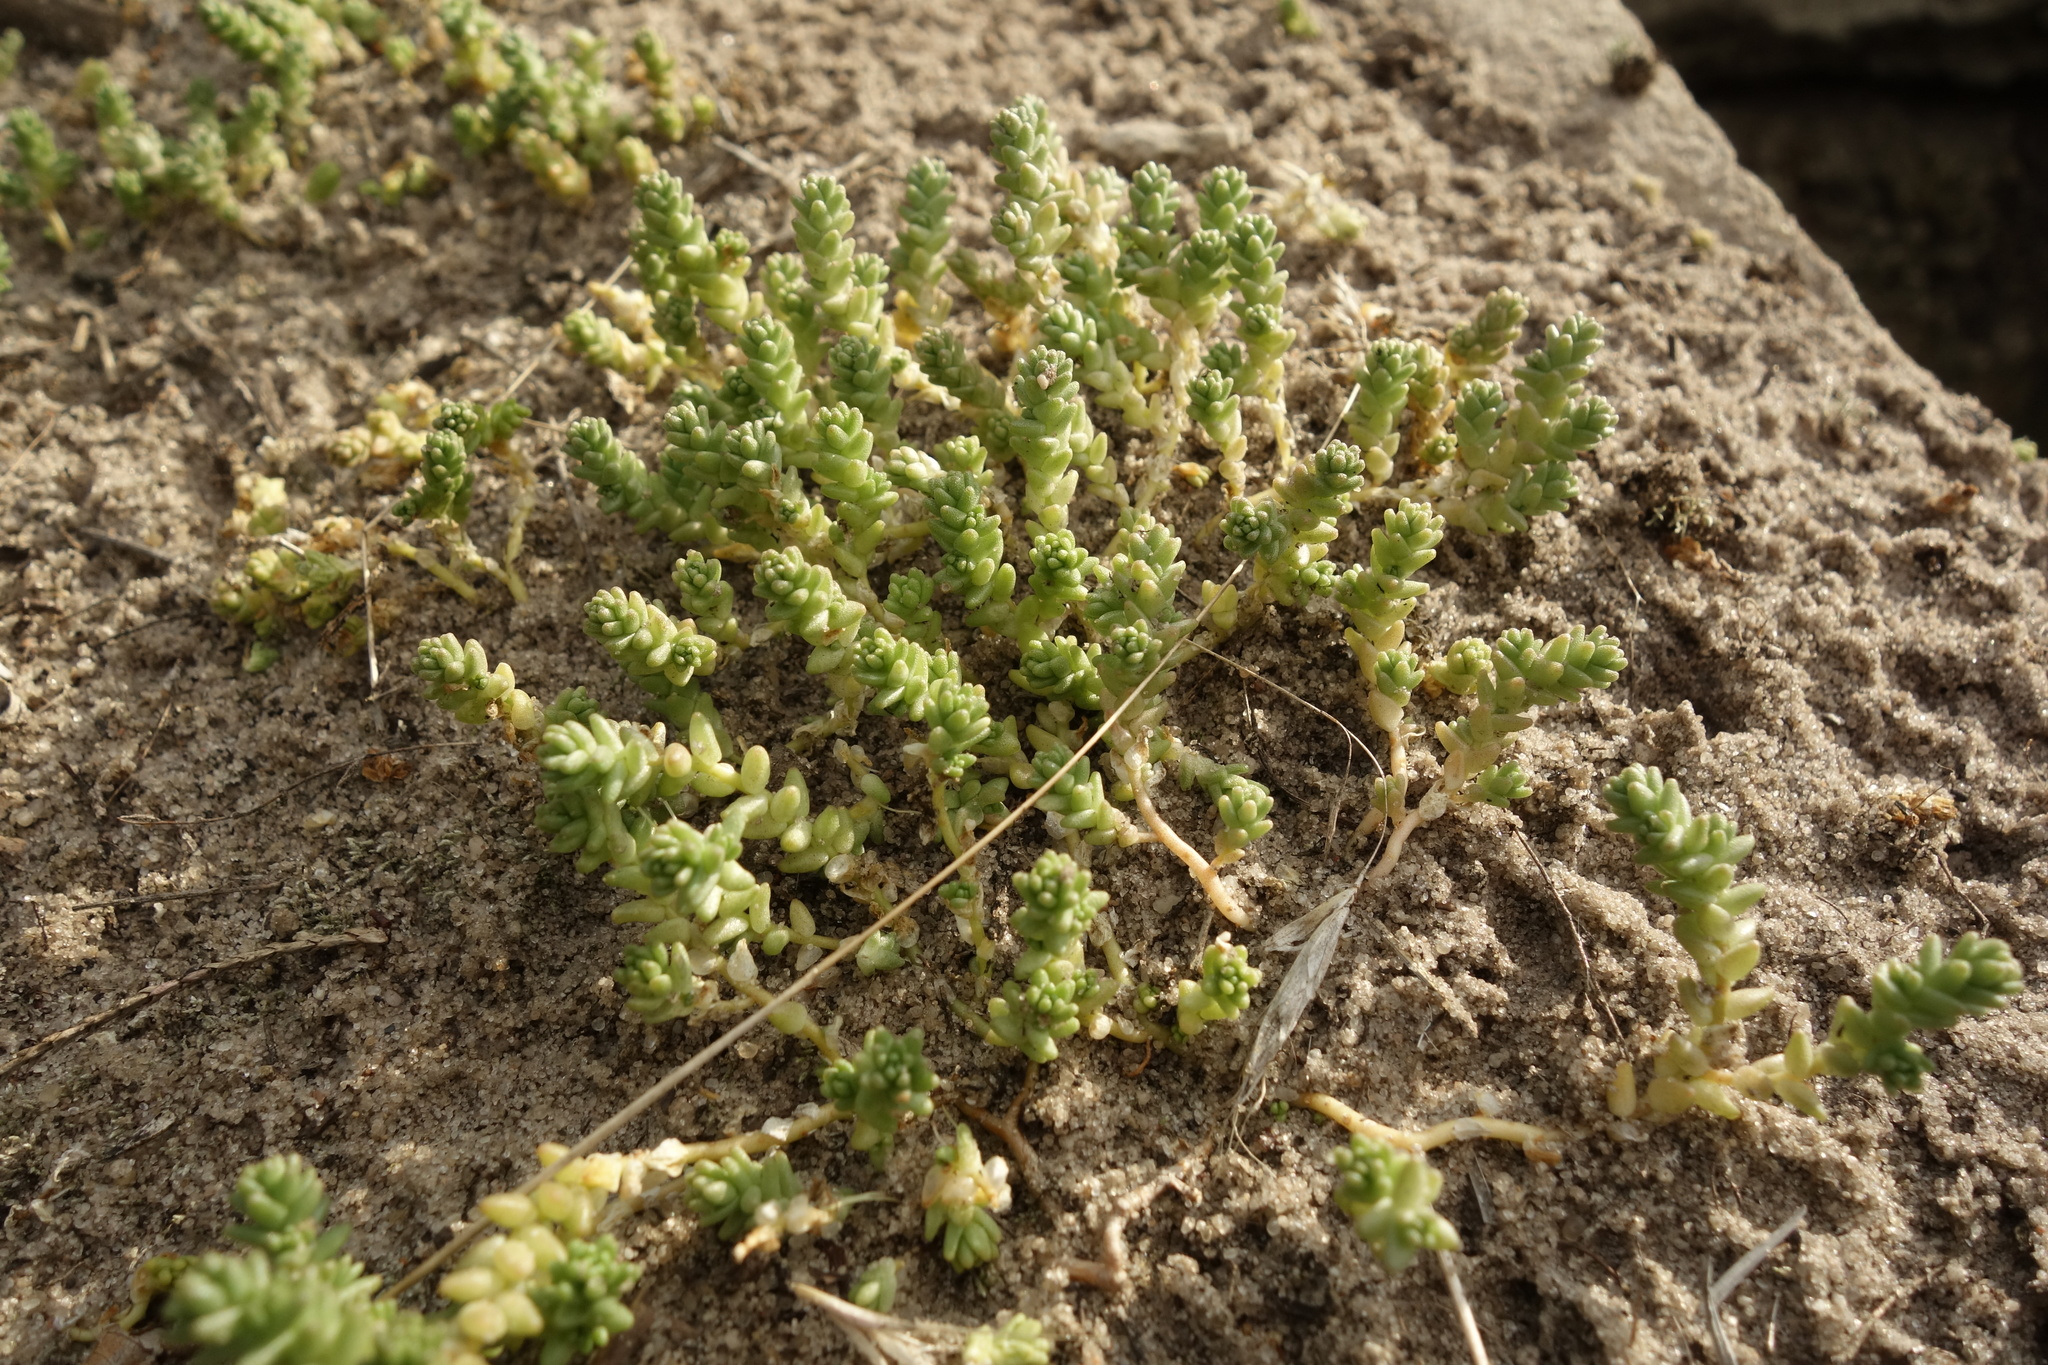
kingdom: Plantae
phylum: Tracheophyta
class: Magnoliopsida
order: Saxifragales
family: Crassulaceae
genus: Sedum
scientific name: Sedum acre
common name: Biting stonecrop
